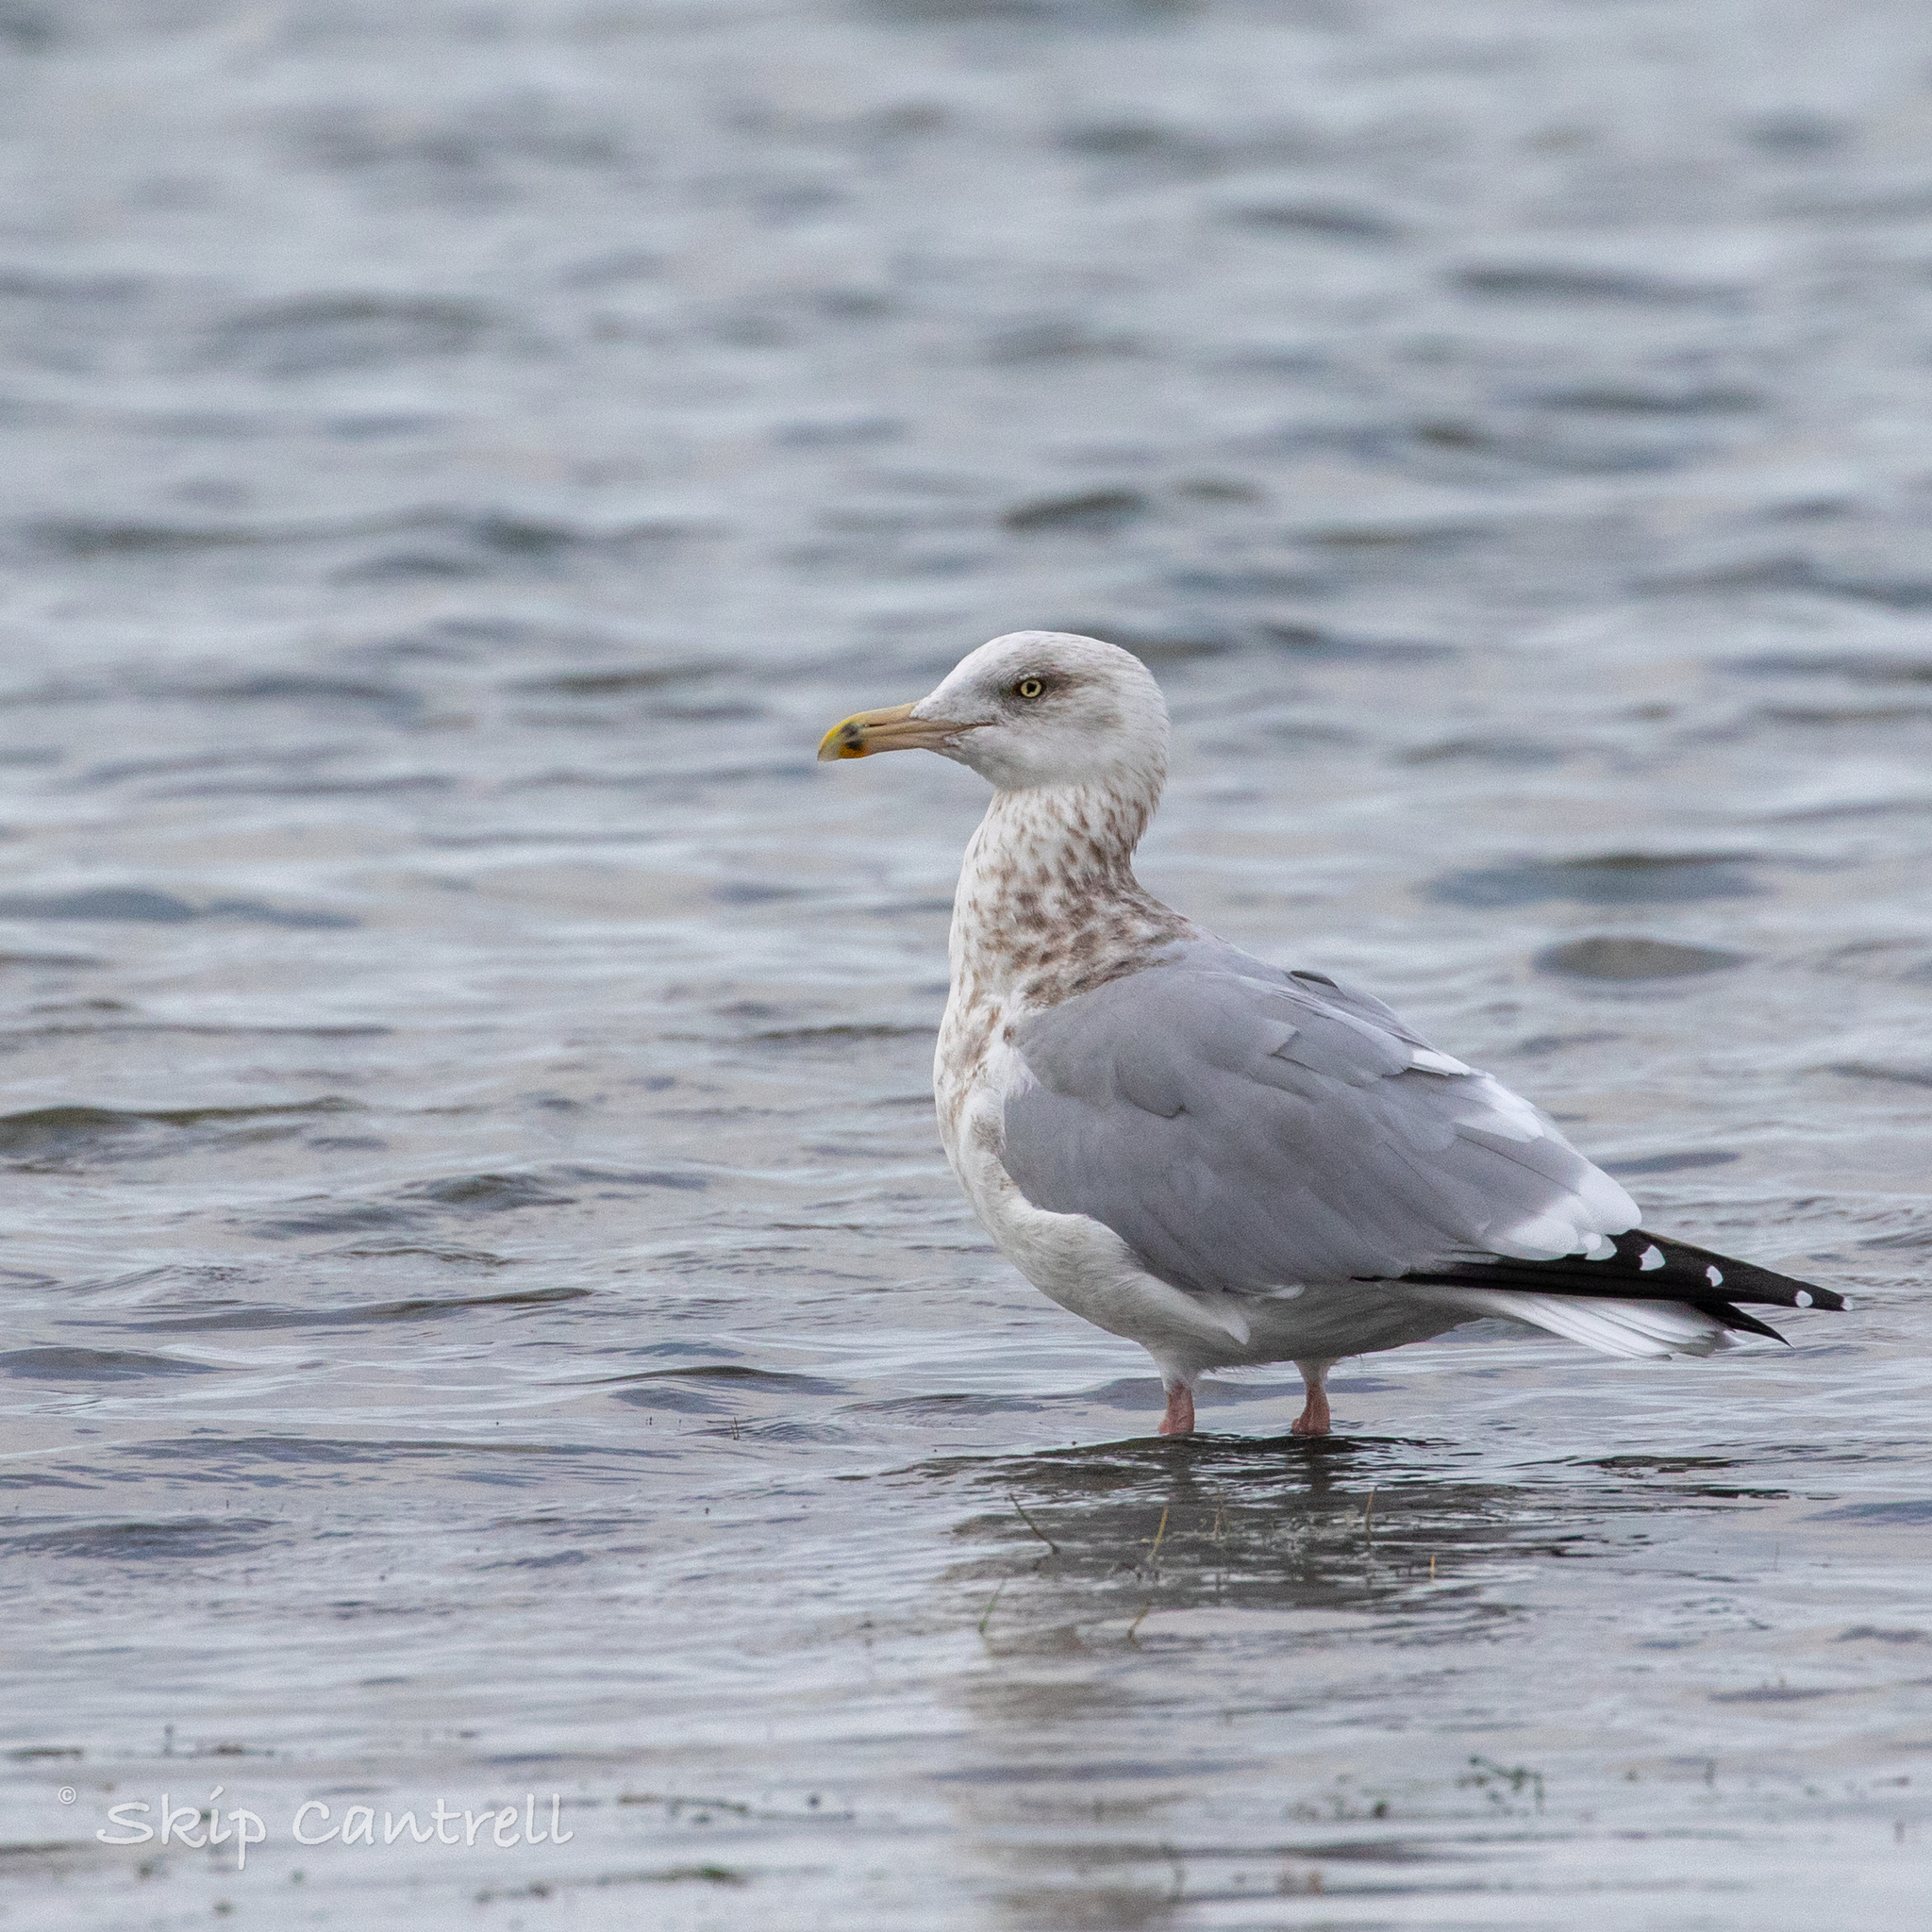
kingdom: Animalia
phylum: Chordata
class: Aves
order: Charadriiformes
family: Laridae
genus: Larus
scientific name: Larus argentatus
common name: Herring gull
